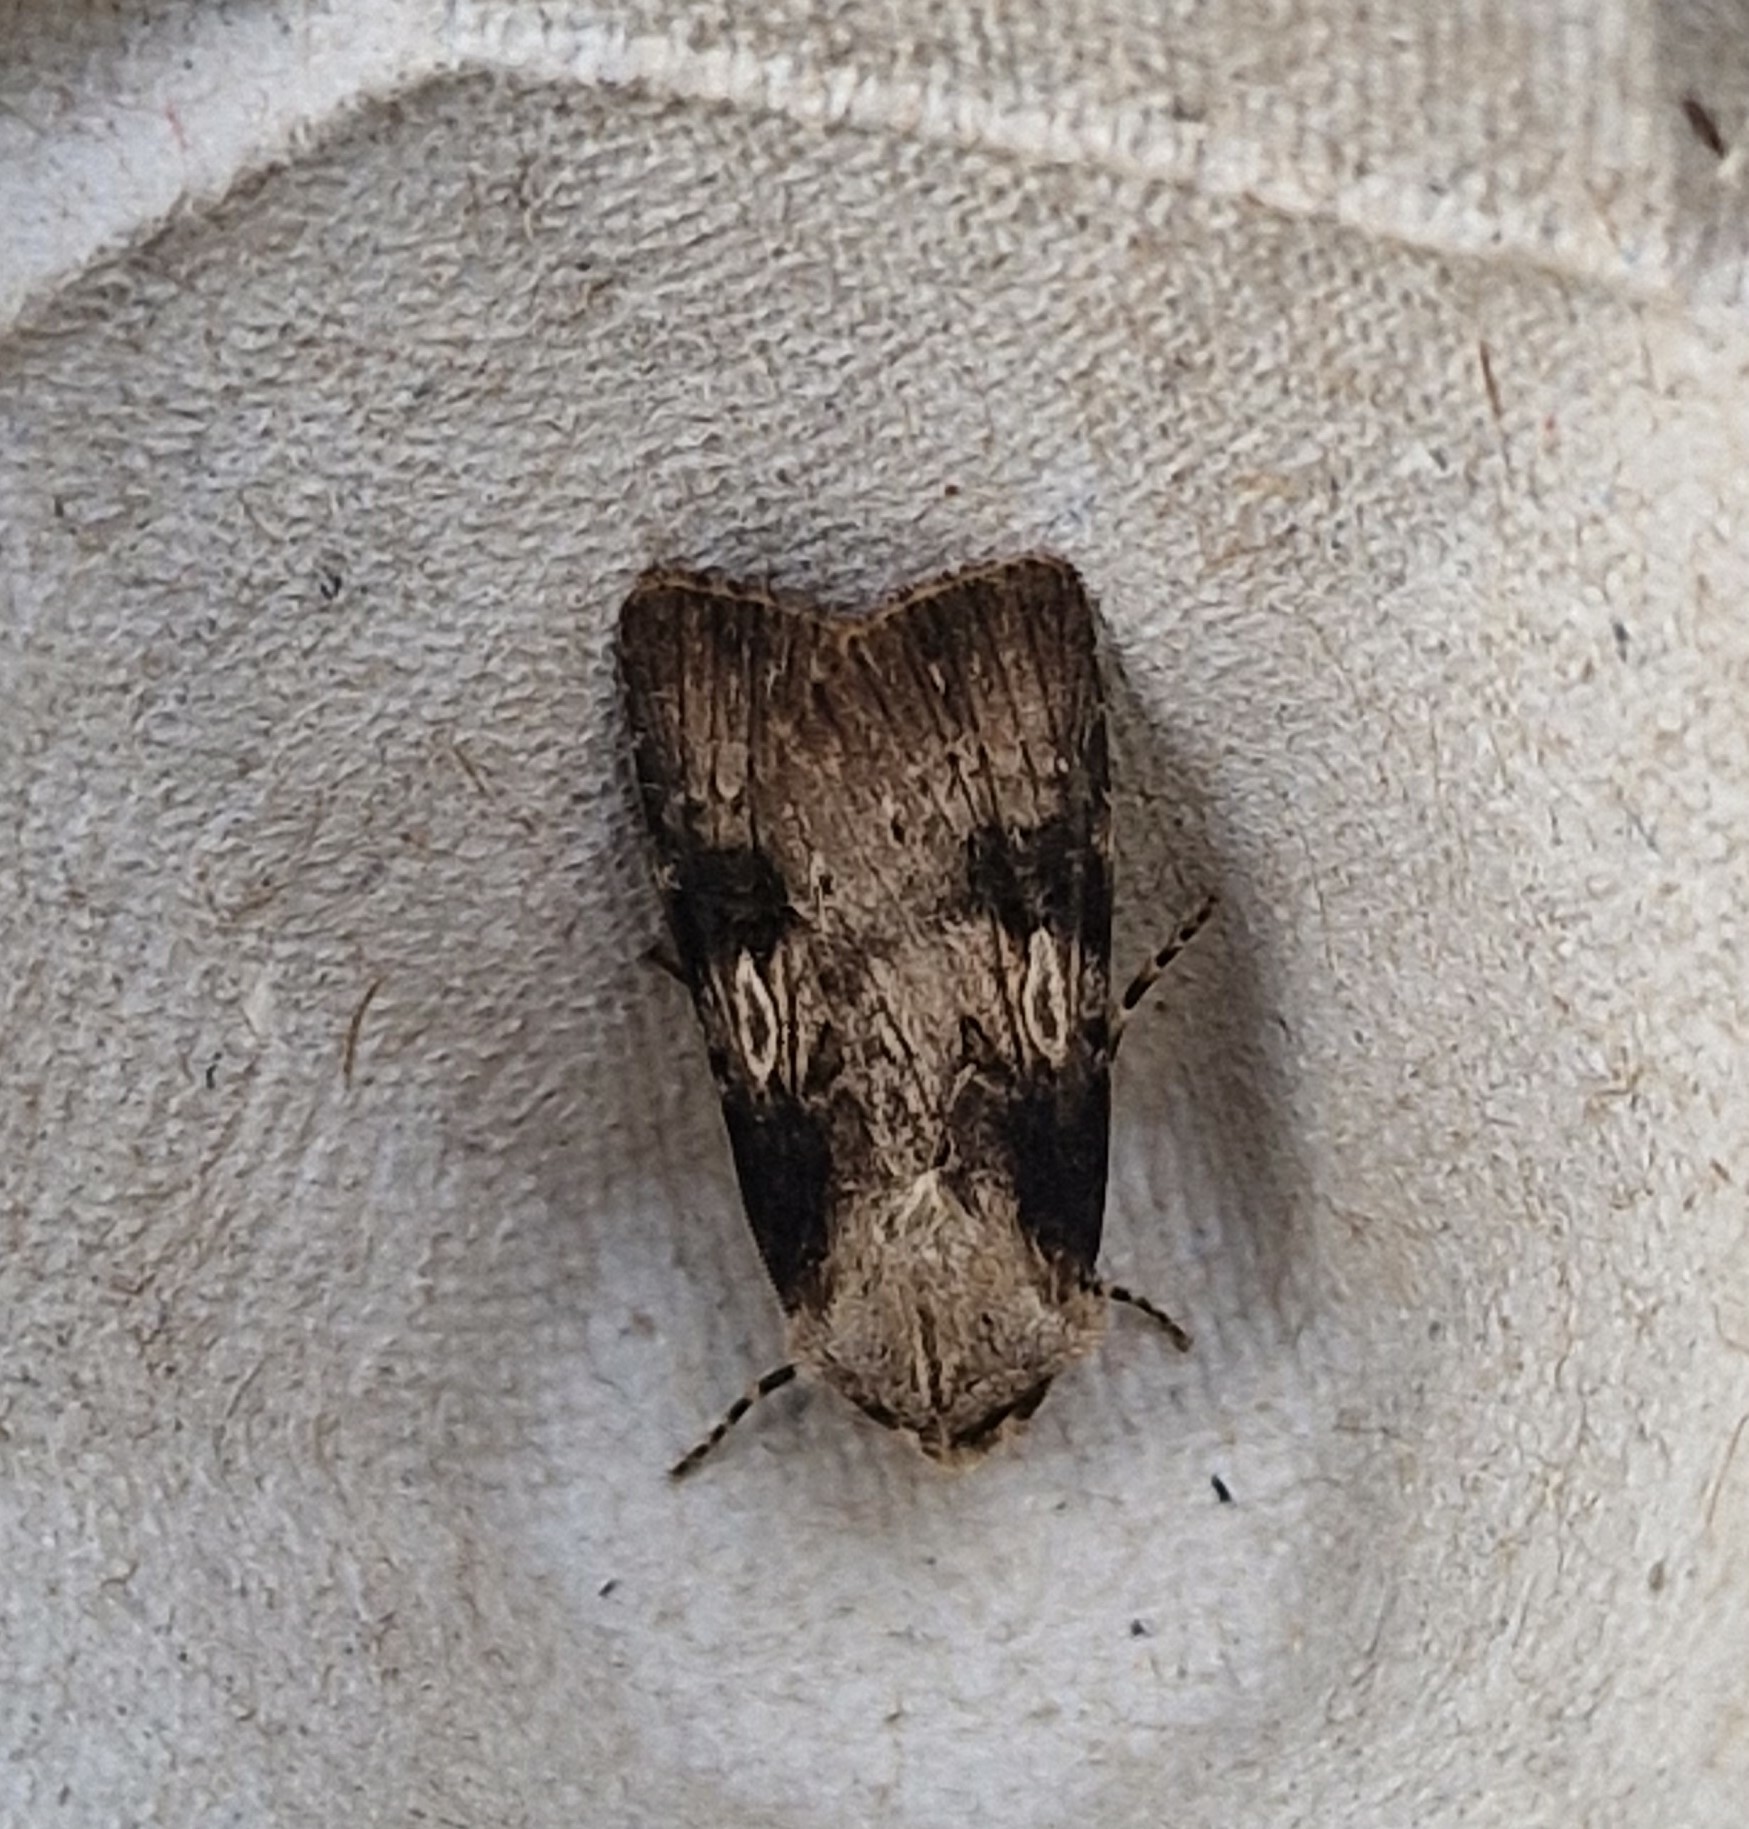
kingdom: Animalia
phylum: Arthropoda
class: Insecta
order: Lepidoptera
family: Noctuidae
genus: Agrotis
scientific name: Agrotis puta
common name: Shuttle-shaped dart
